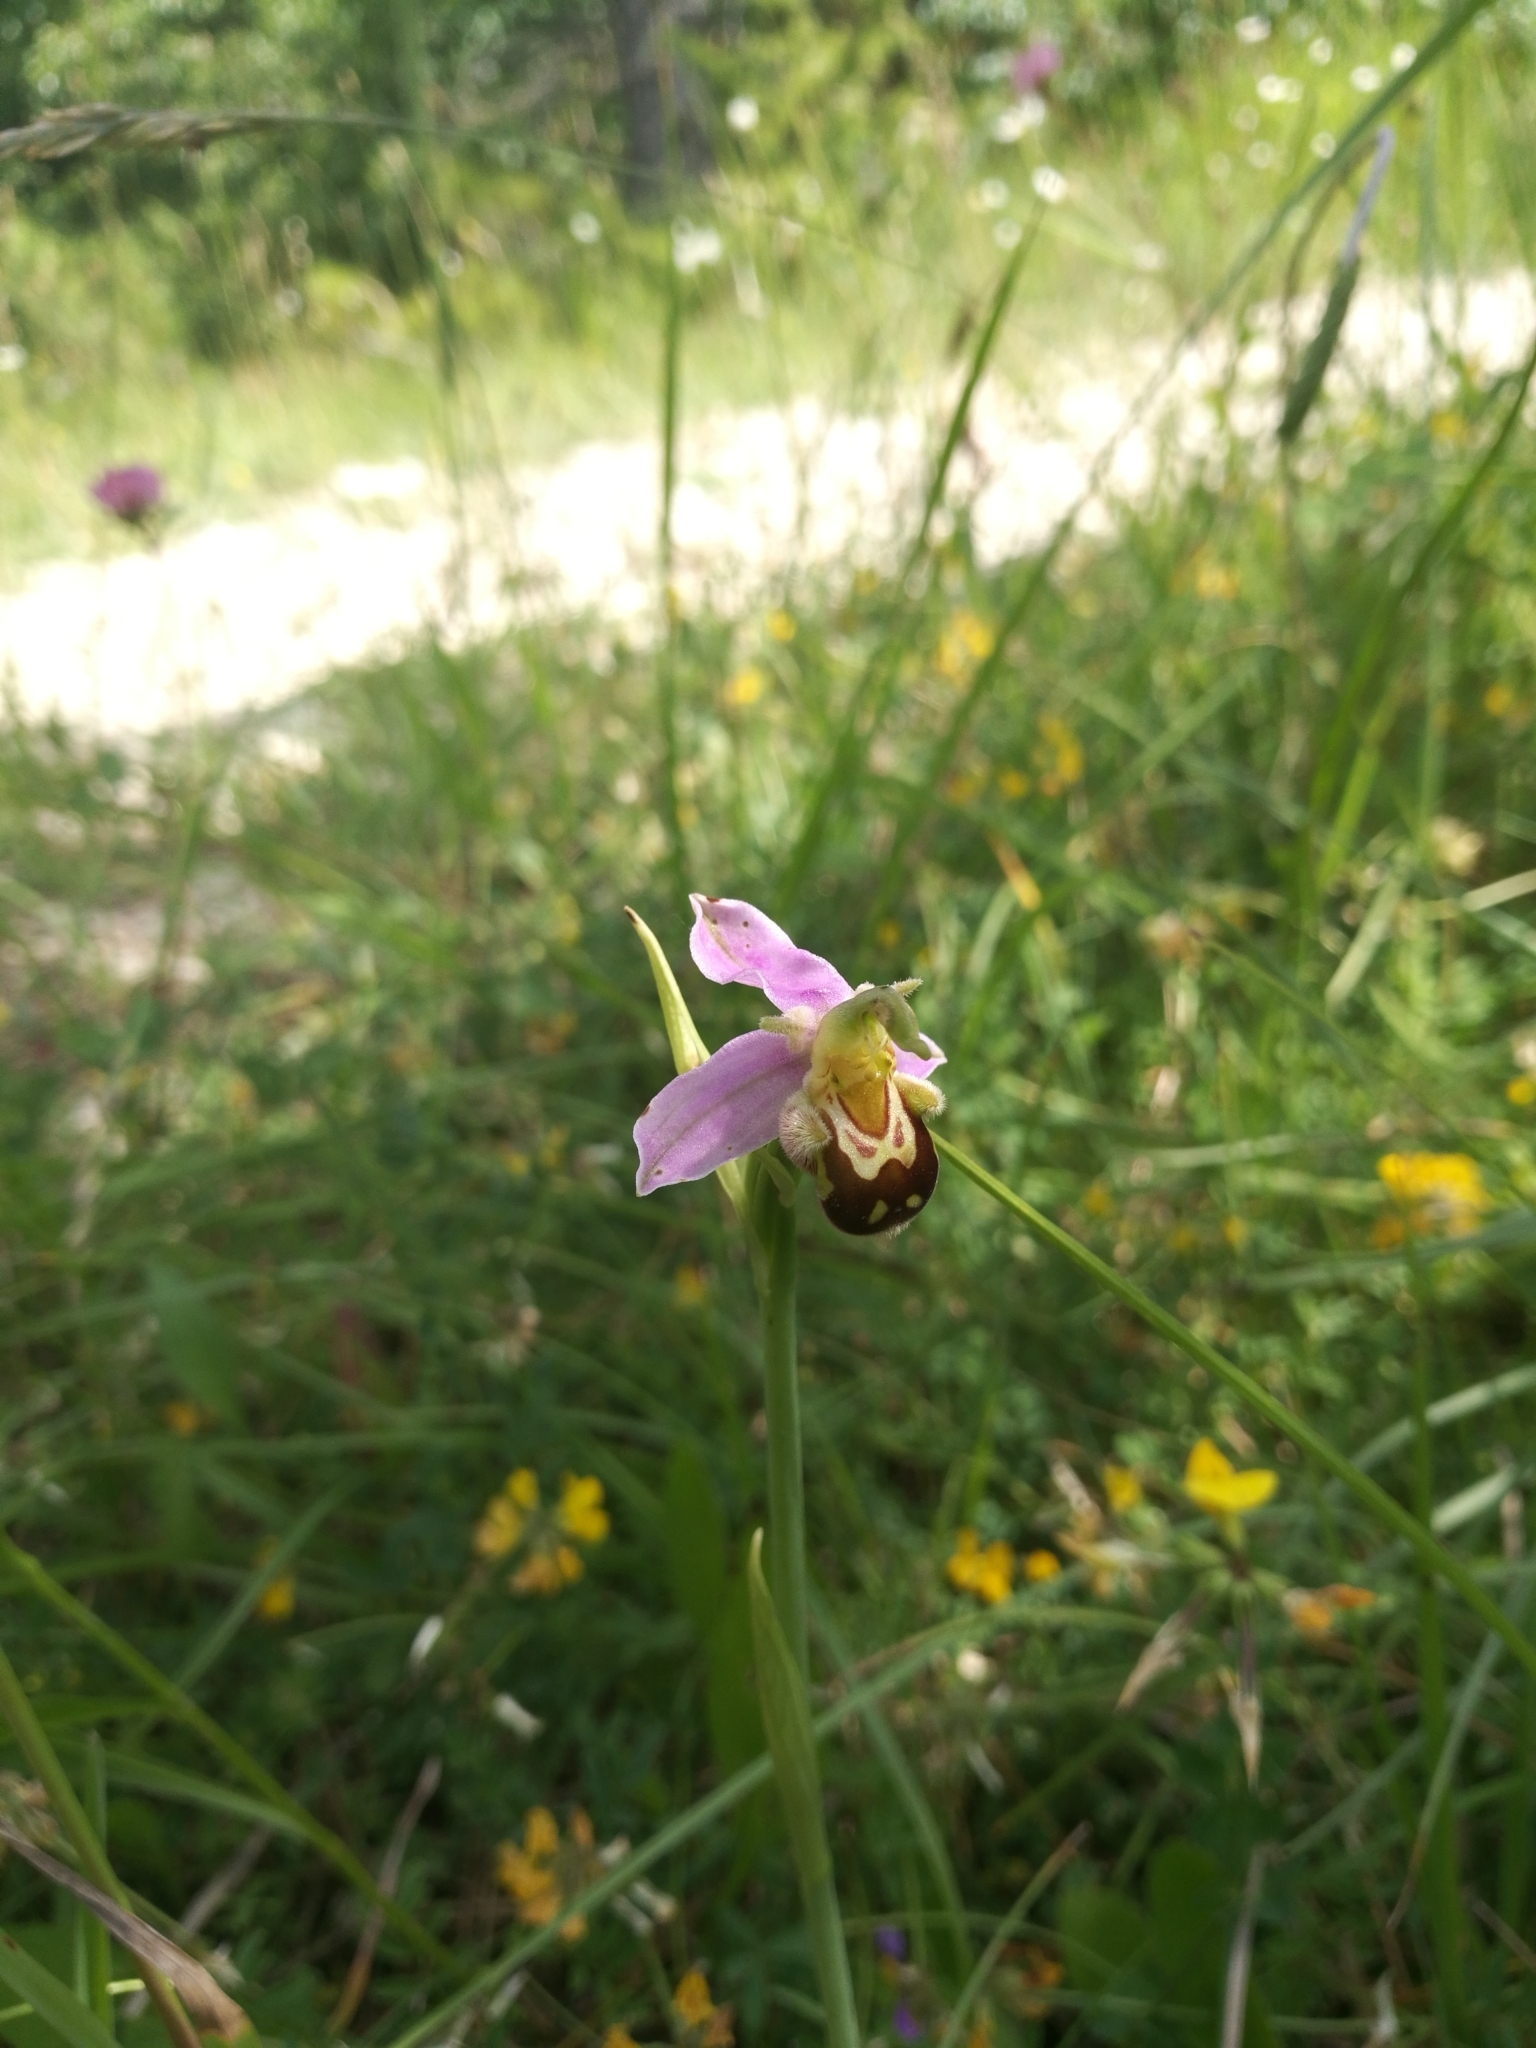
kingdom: Plantae
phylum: Tracheophyta
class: Liliopsida
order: Asparagales
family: Orchidaceae
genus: Ophrys
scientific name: Ophrys apifera
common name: Bee orchid
